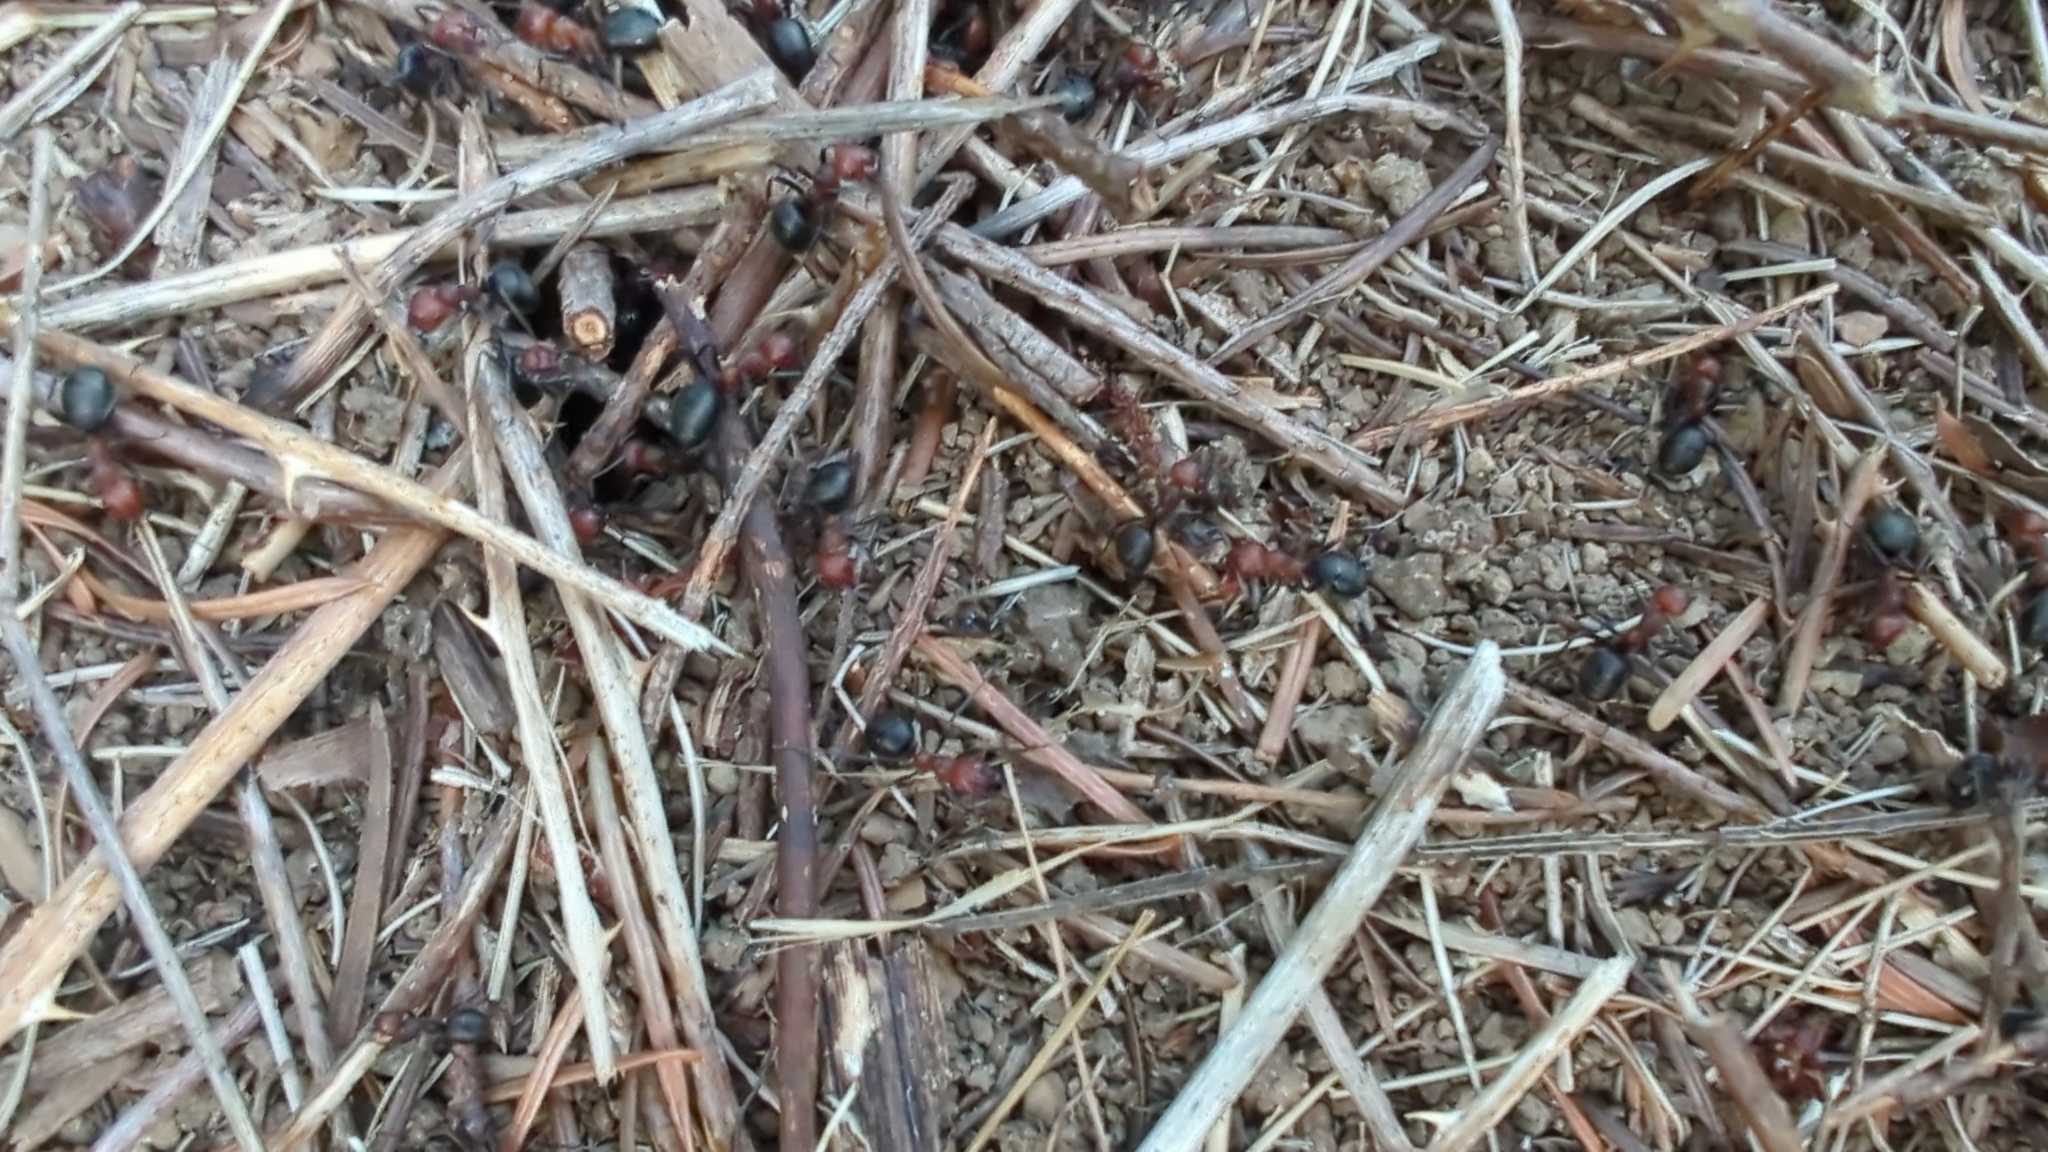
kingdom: Animalia
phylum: Arthropoda
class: Insecta
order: Hymenoptera
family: Formicidae
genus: Formica
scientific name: Formica obscuripes
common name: Western thatching ant
